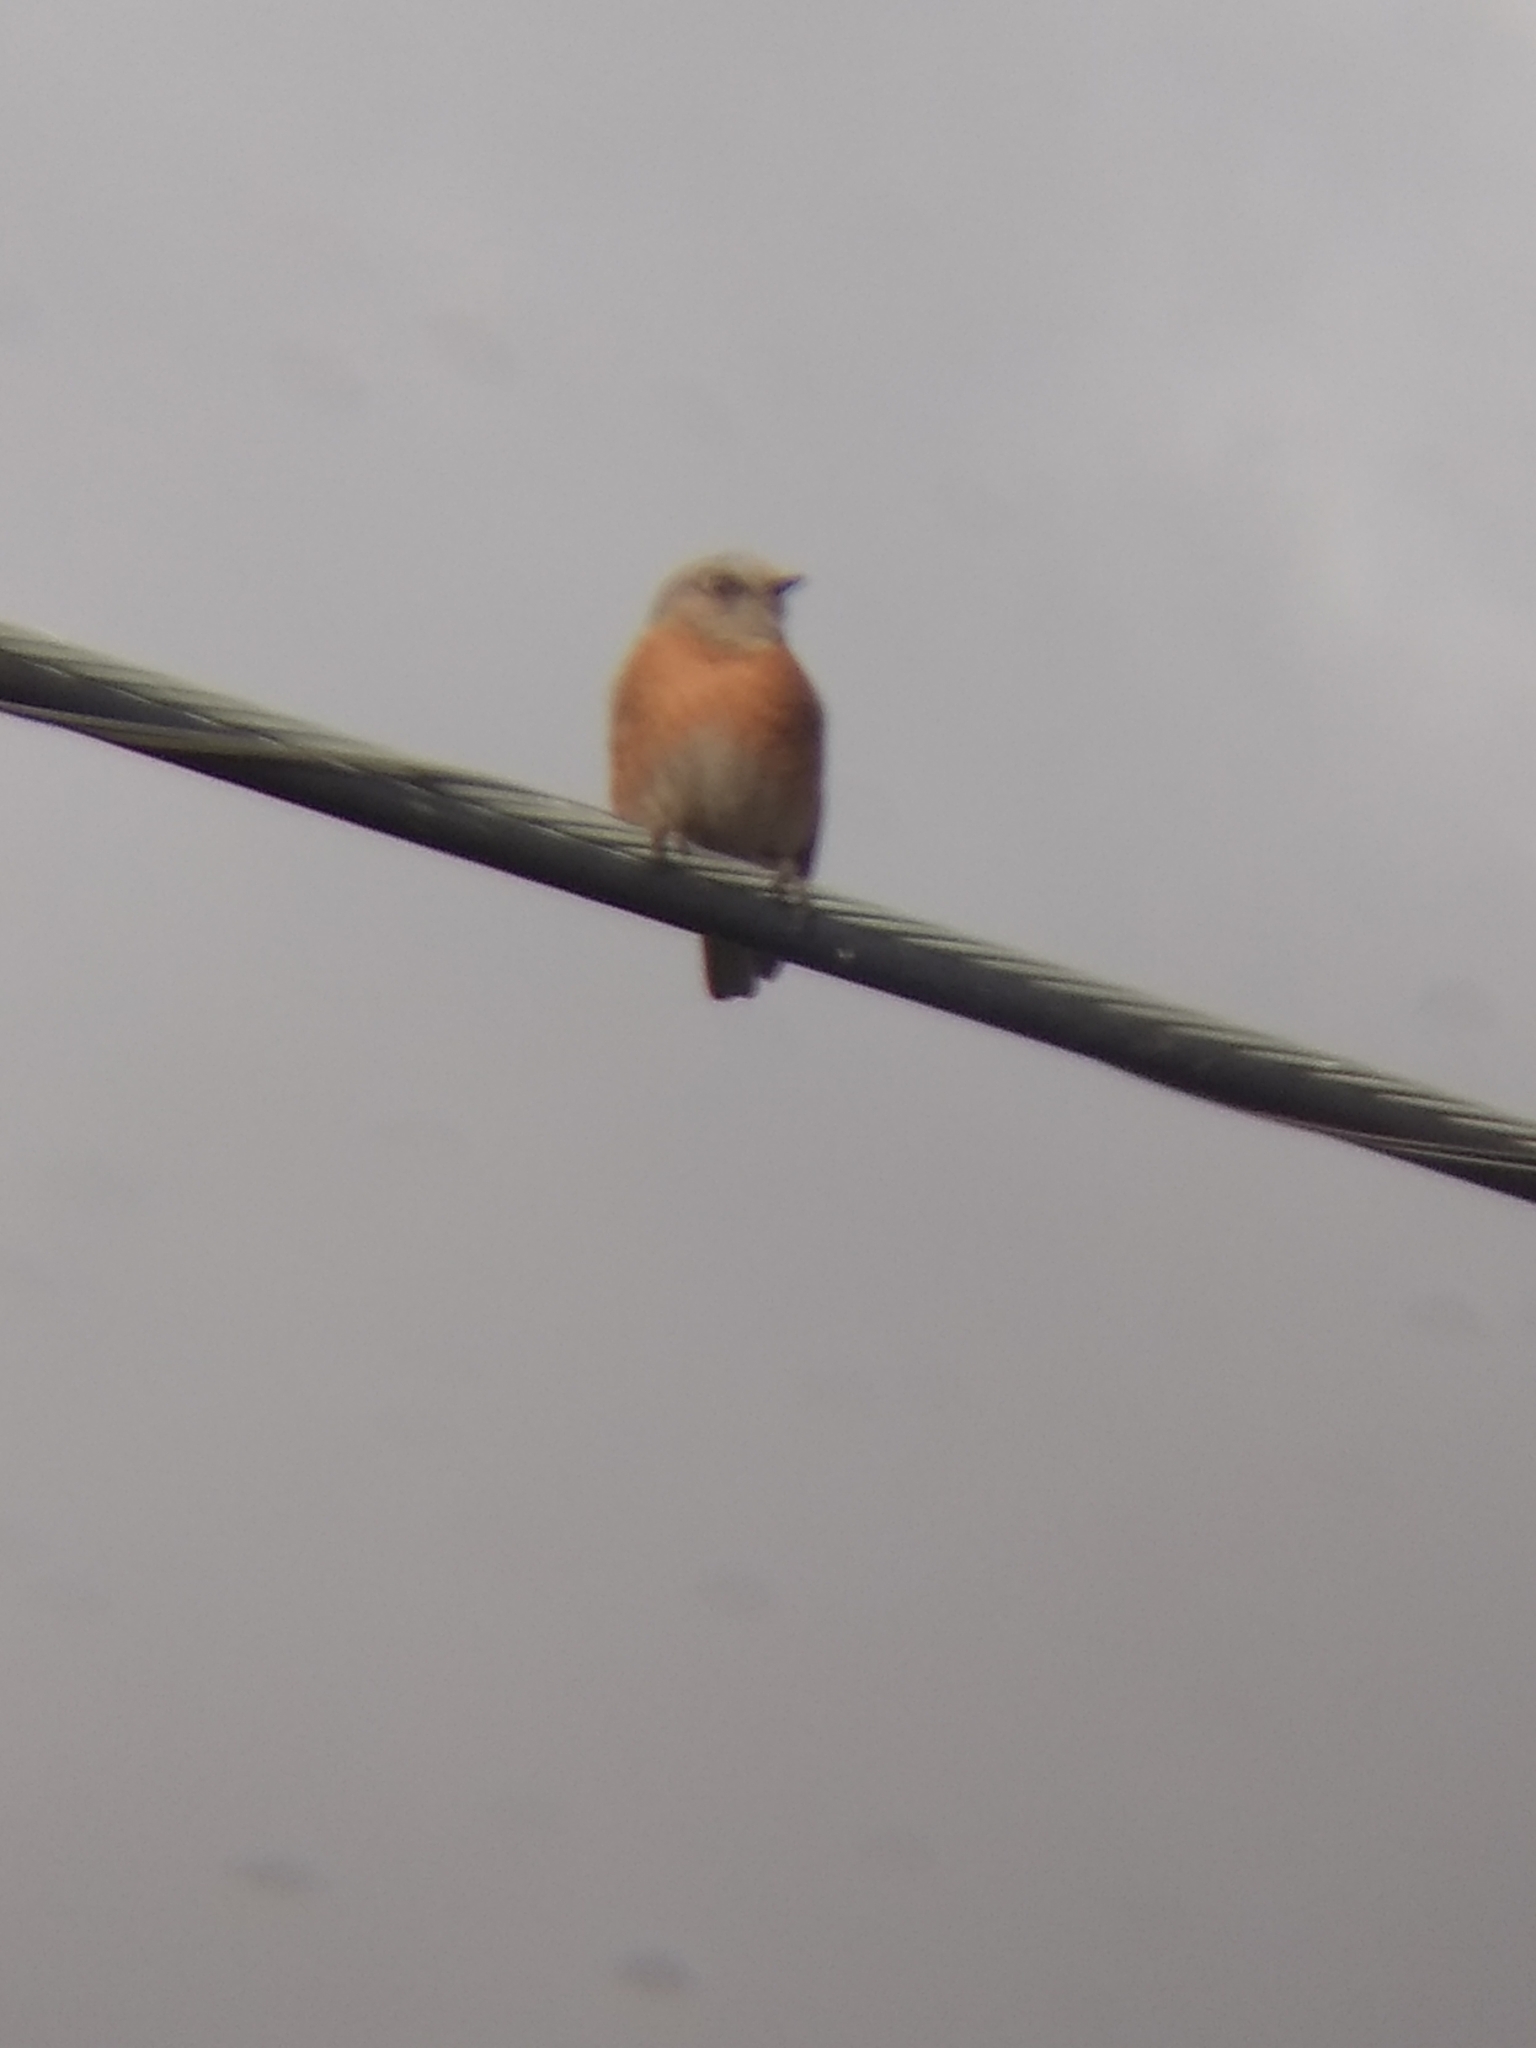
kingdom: Animalia
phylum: Chordata
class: Aves
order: Passeriformes
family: Turdidae
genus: Sialia
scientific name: Sialia mexicana
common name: Western bluebird
